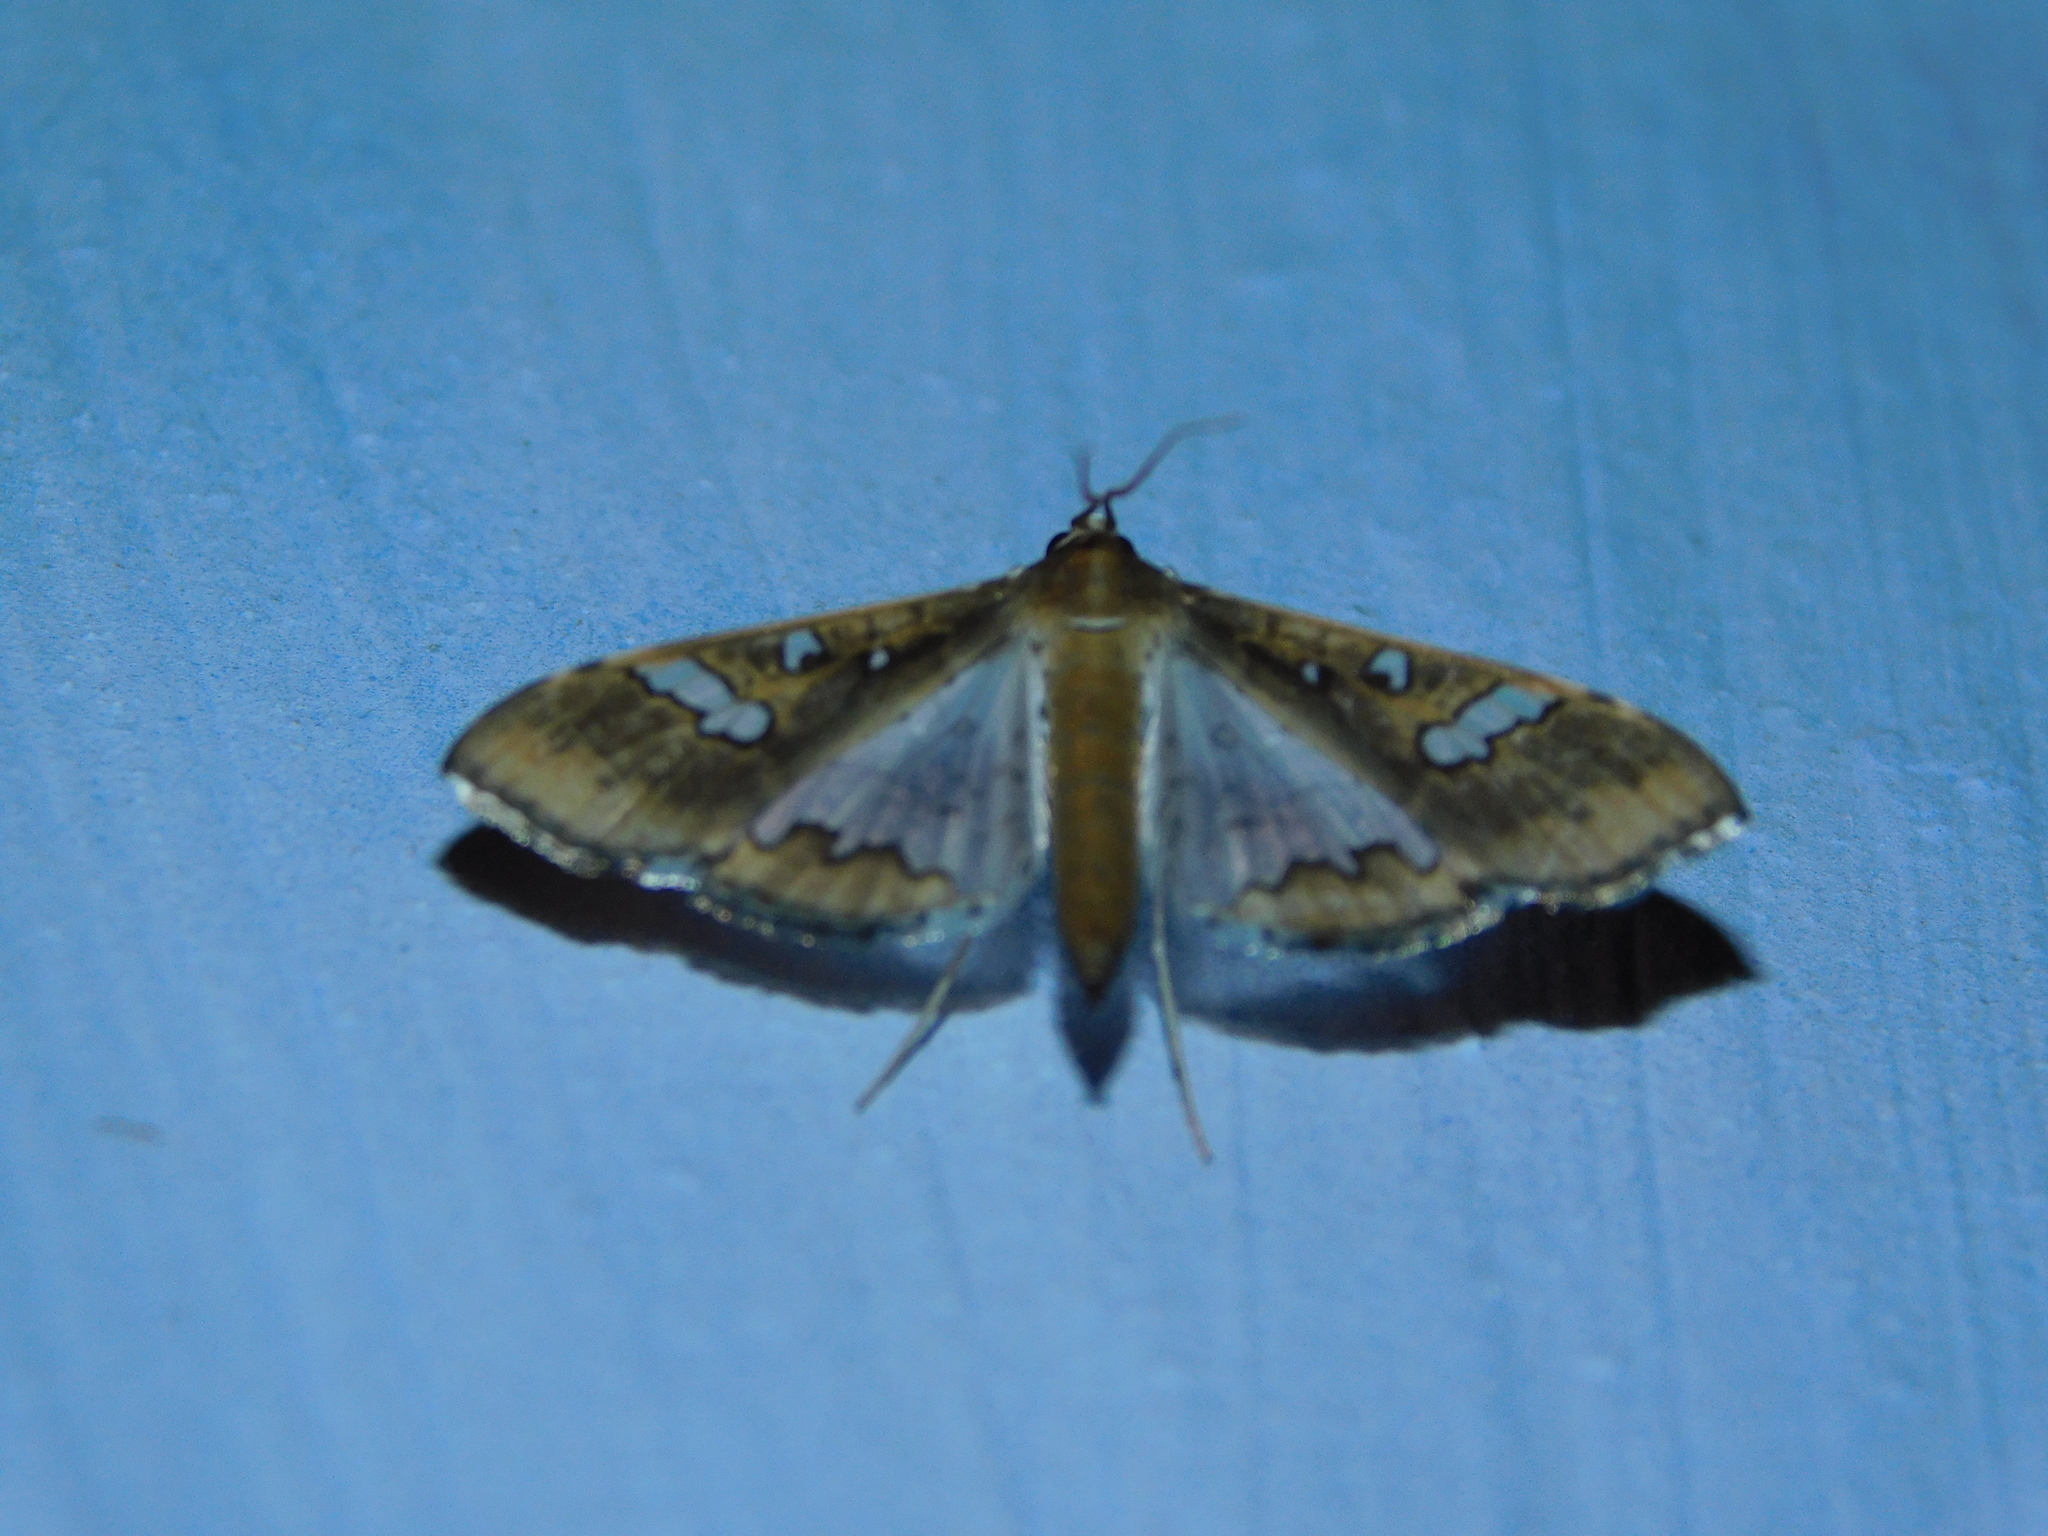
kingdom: Animalia
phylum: Arthropoda
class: Insecta
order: Lepidoptera
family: Crambidae
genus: Maruca
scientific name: Maruca vitrata
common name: Maruca pod borer
